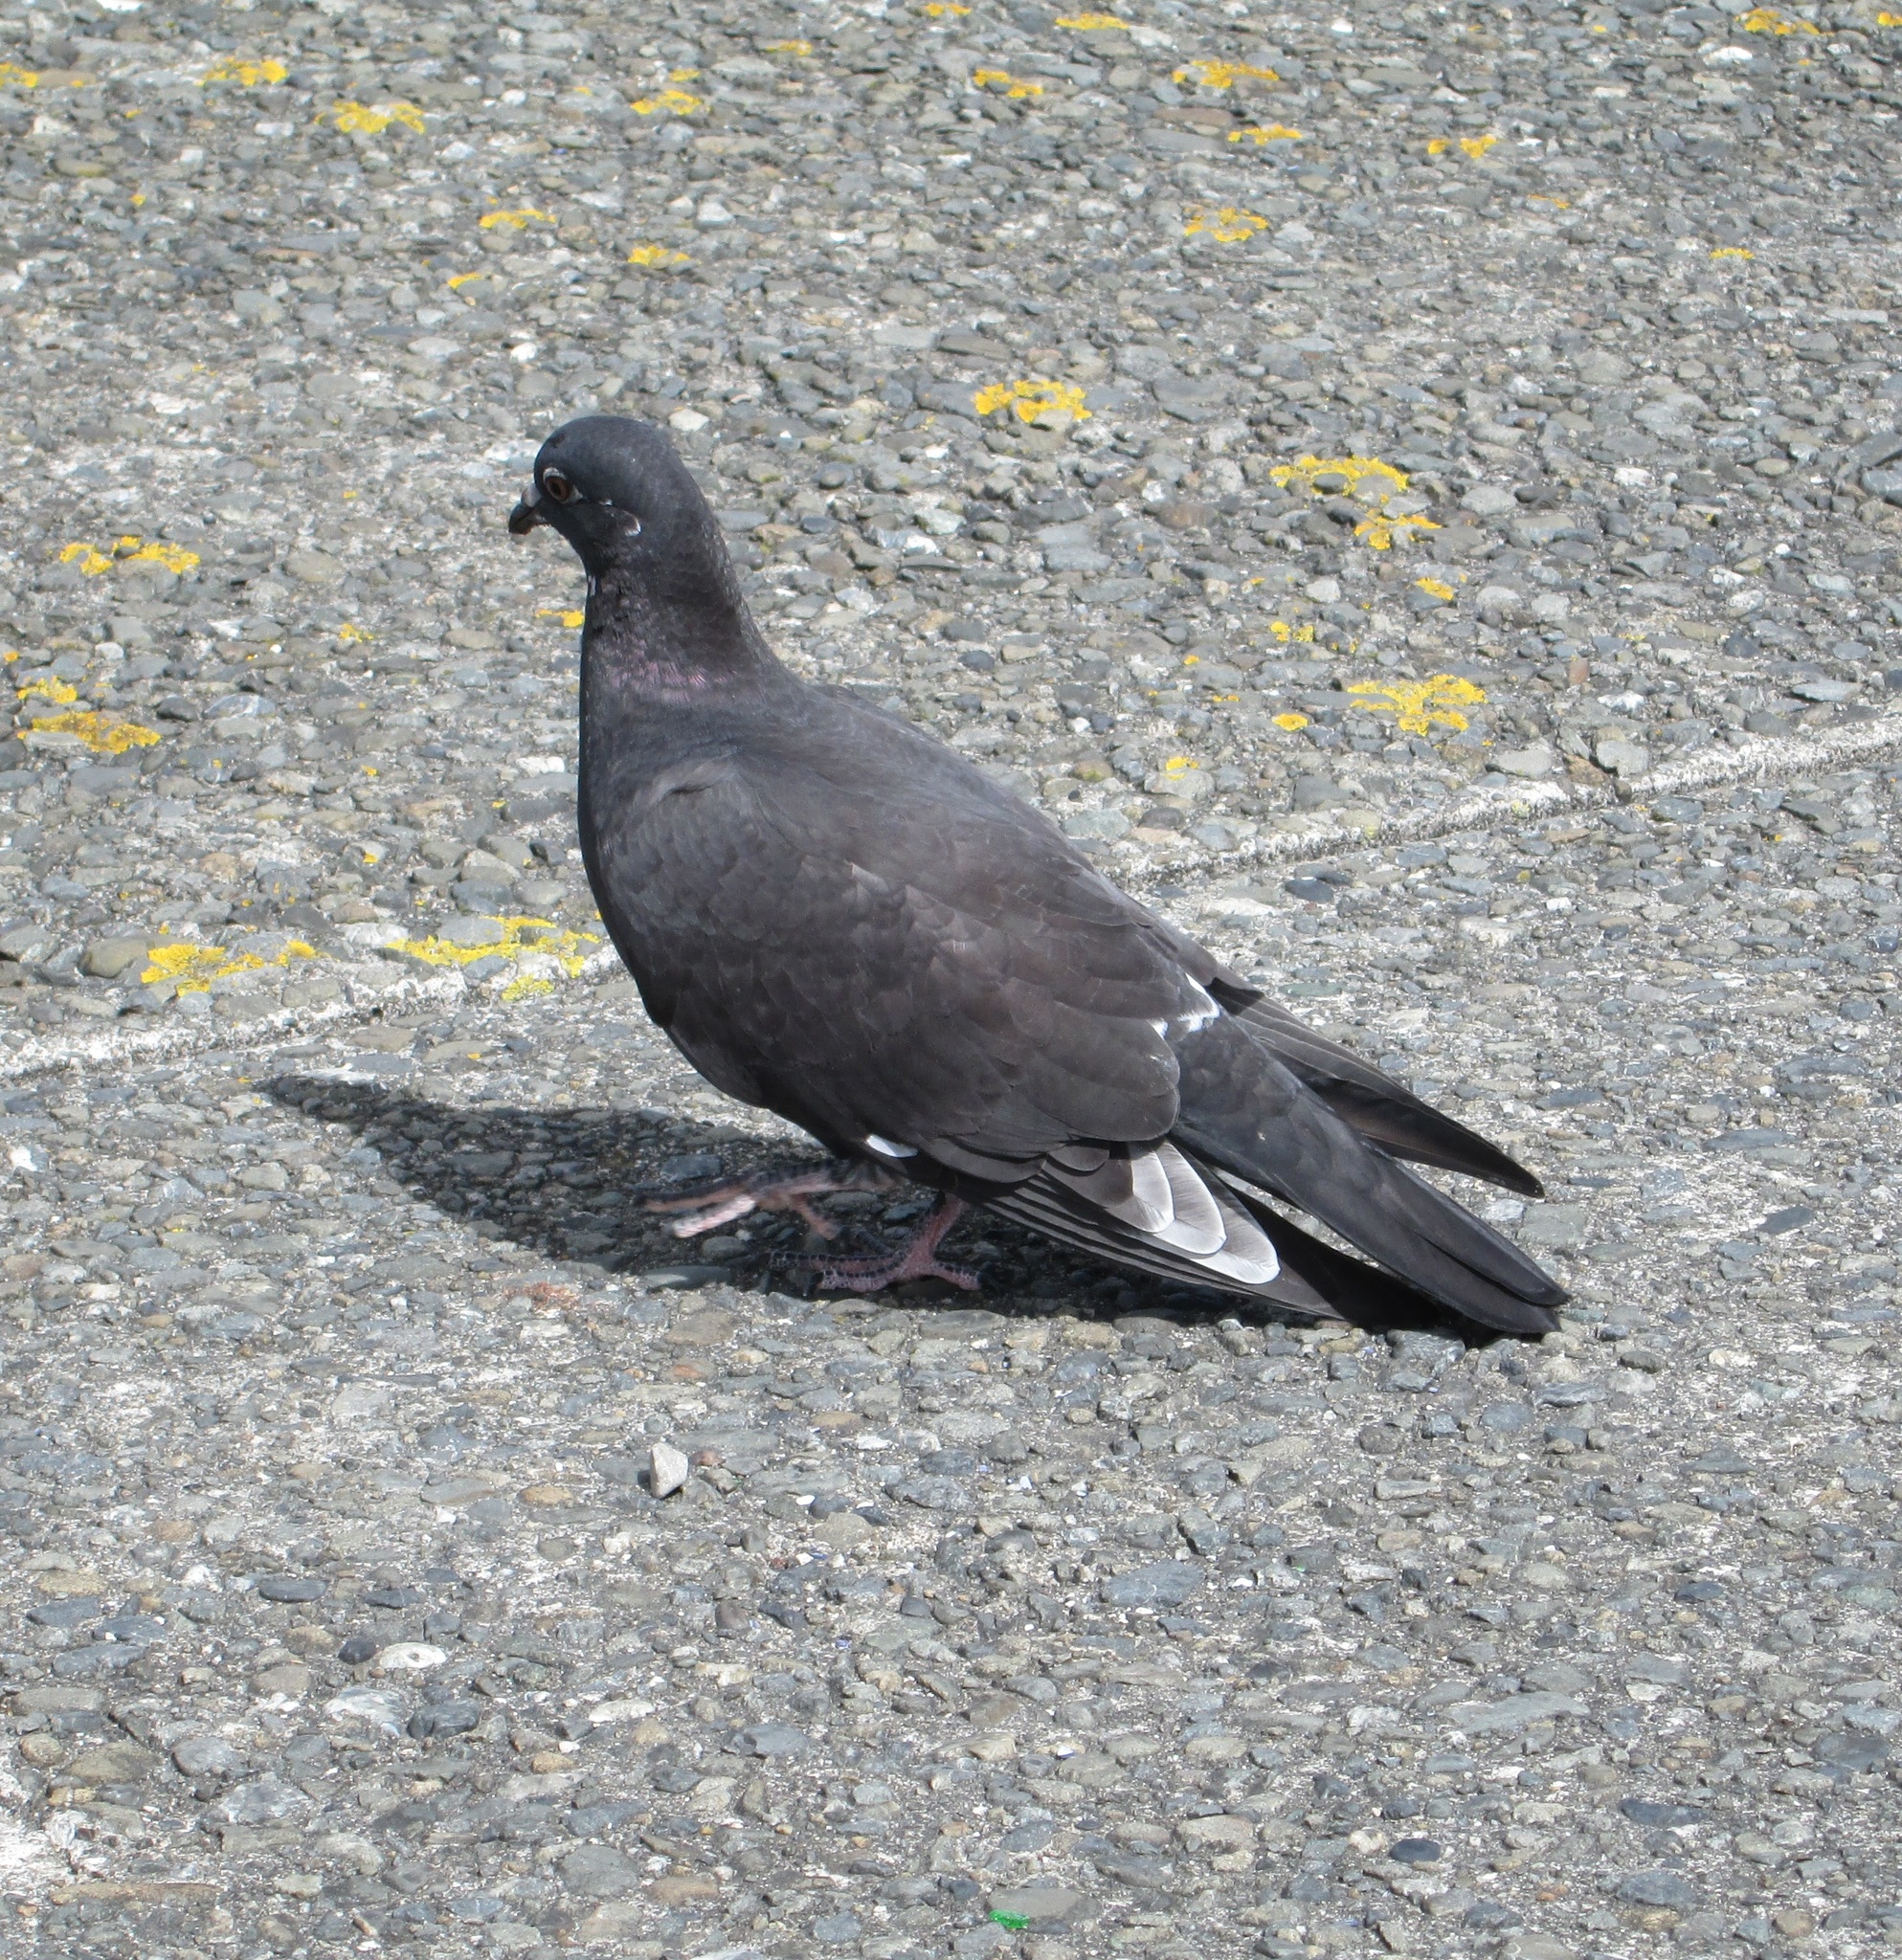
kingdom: Animalia
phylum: Chordata
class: Aves
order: Columbiformes
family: Columbidae
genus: Columba
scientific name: Columba livia
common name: Rock pigeon
